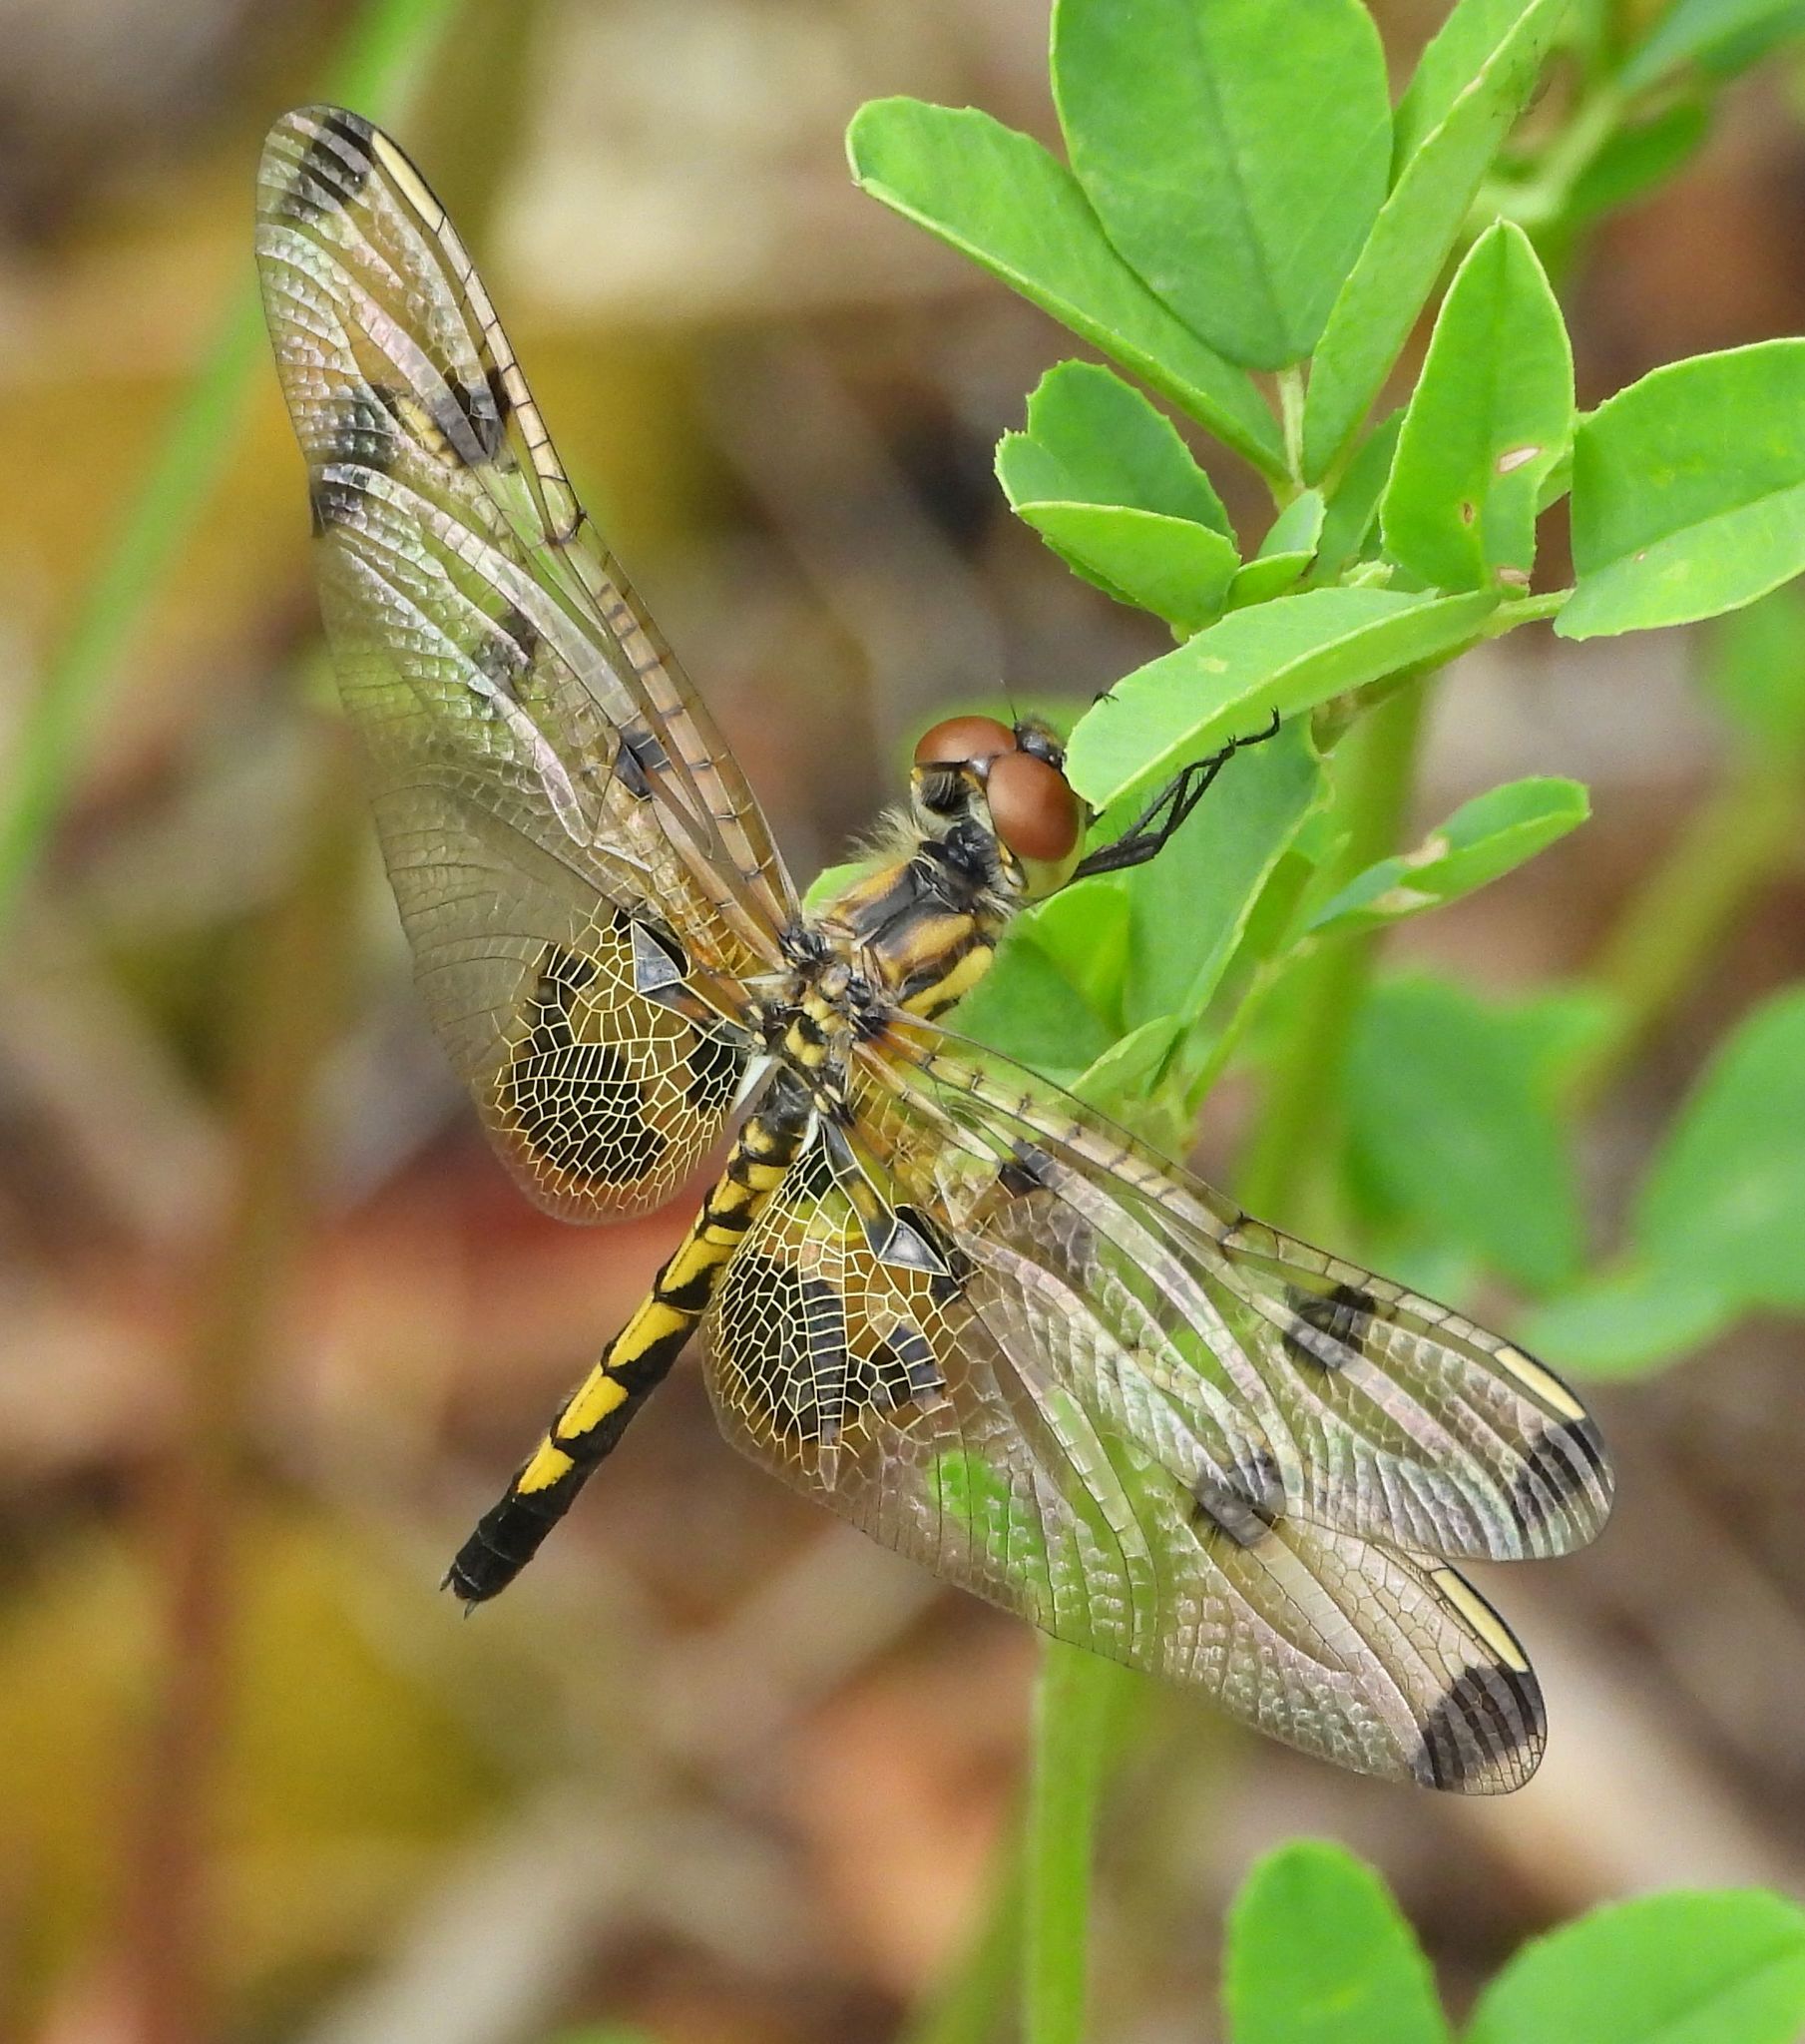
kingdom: Animalia
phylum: Arthropoda
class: Insecta
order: Odonata
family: Libellulidae
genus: Celithemis
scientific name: Celithemis elisa
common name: Calico pennant
